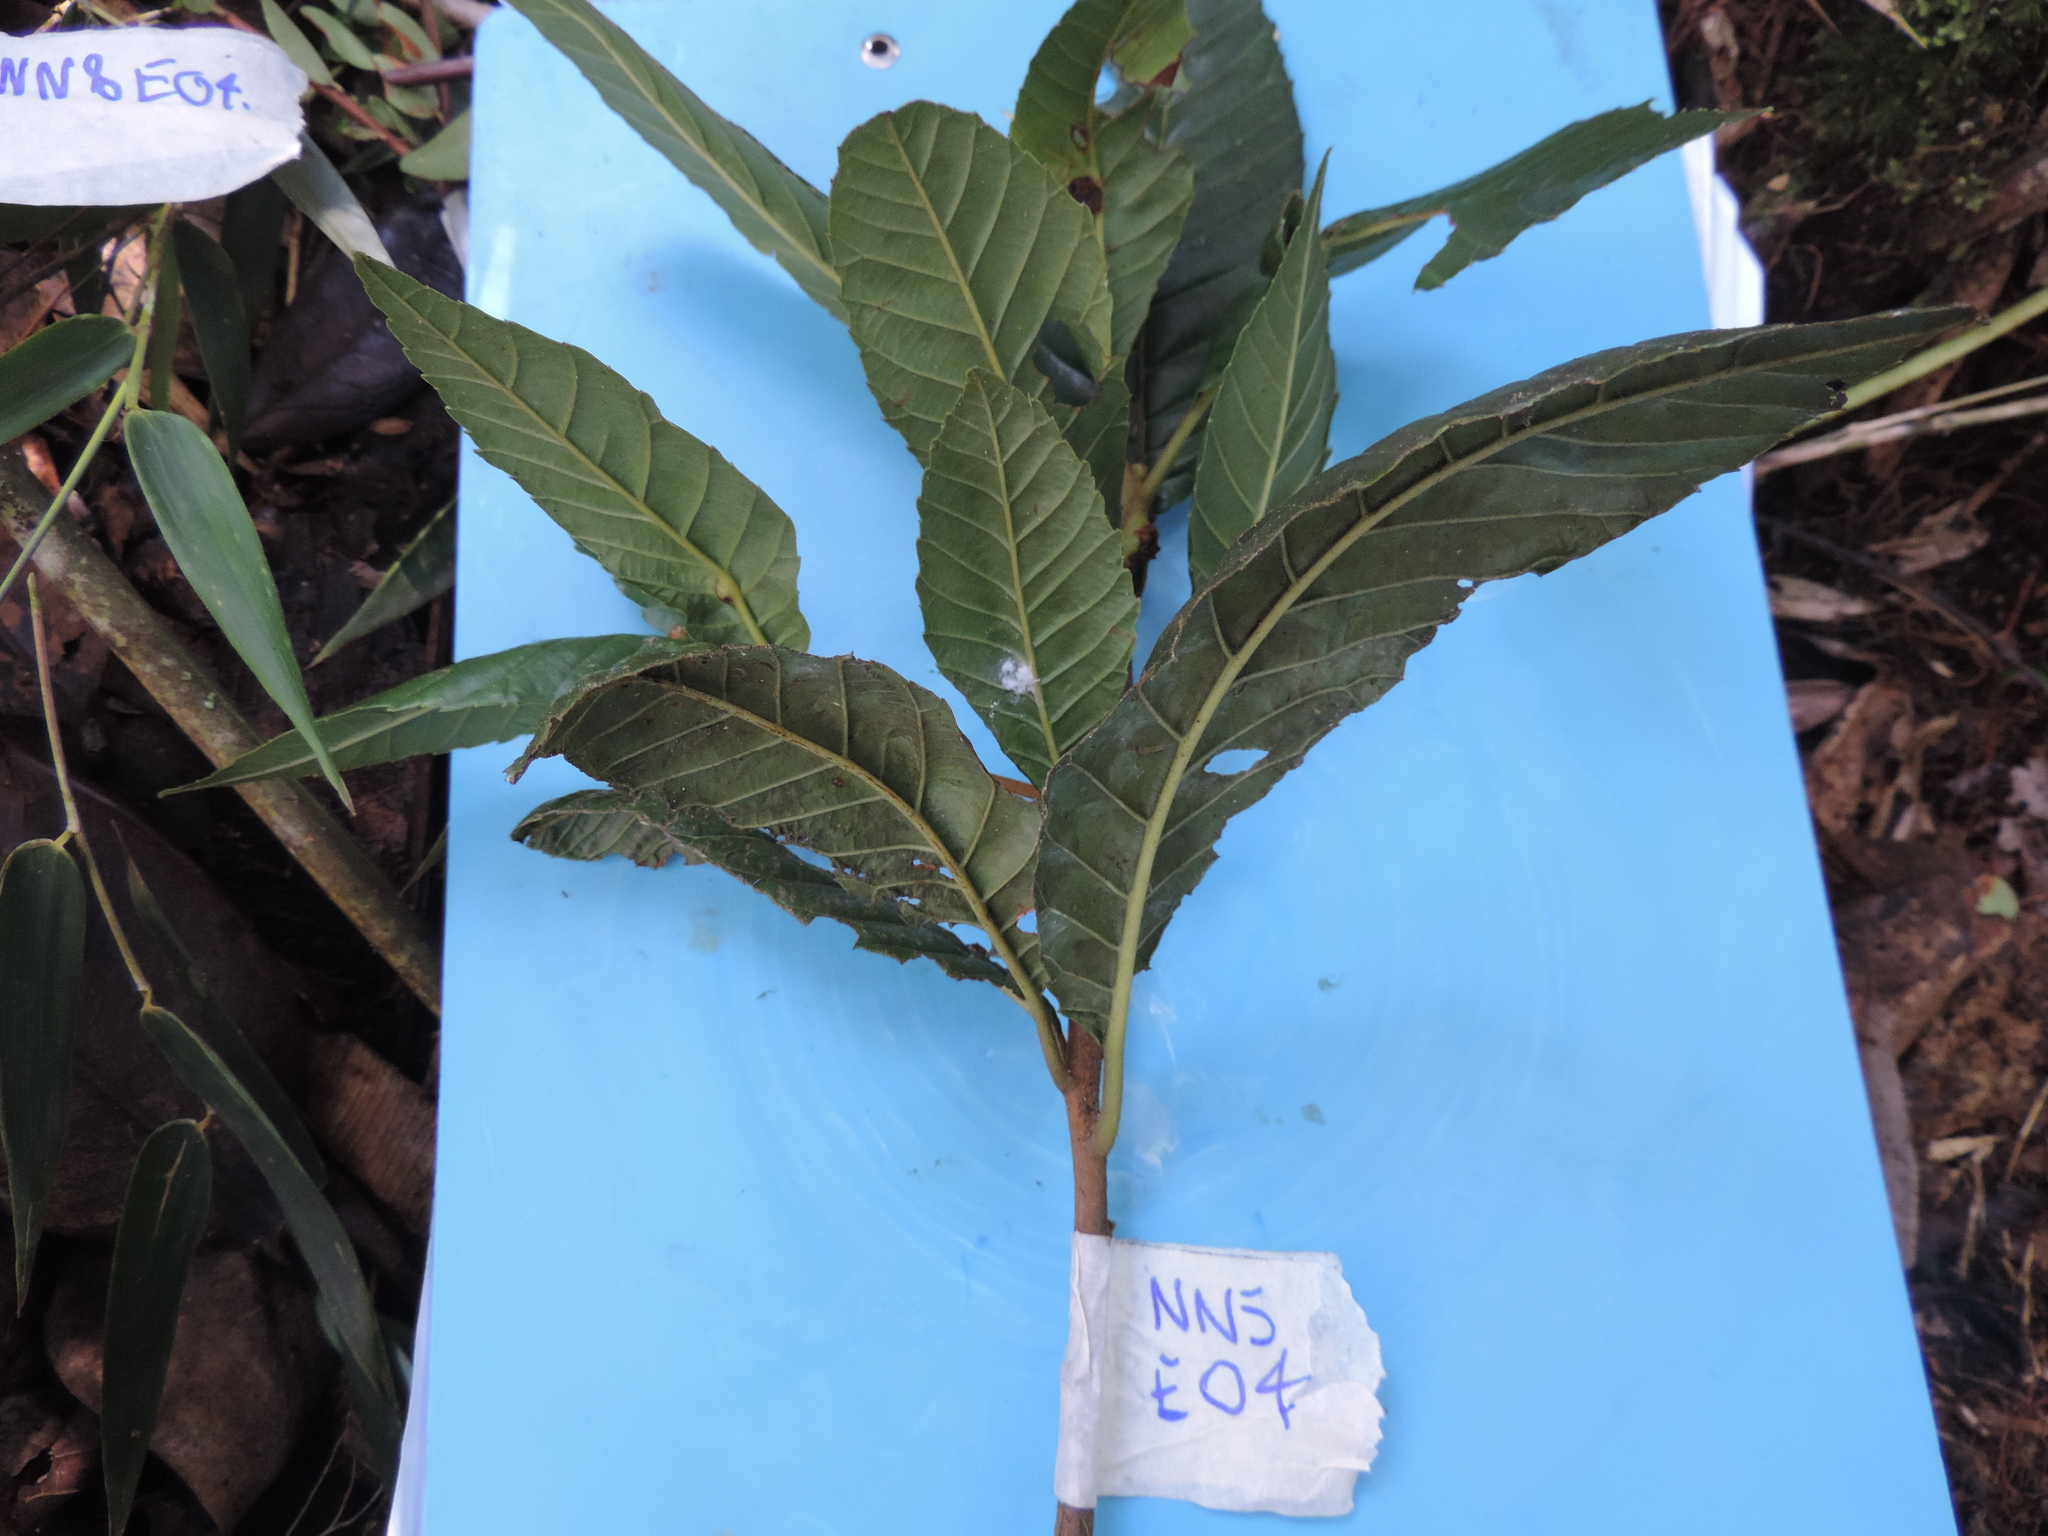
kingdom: Plantae
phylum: Tracheophyta
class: Magnoliopsida
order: Ericales
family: Clethraceae
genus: Clethra
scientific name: Clethra fagifolia
